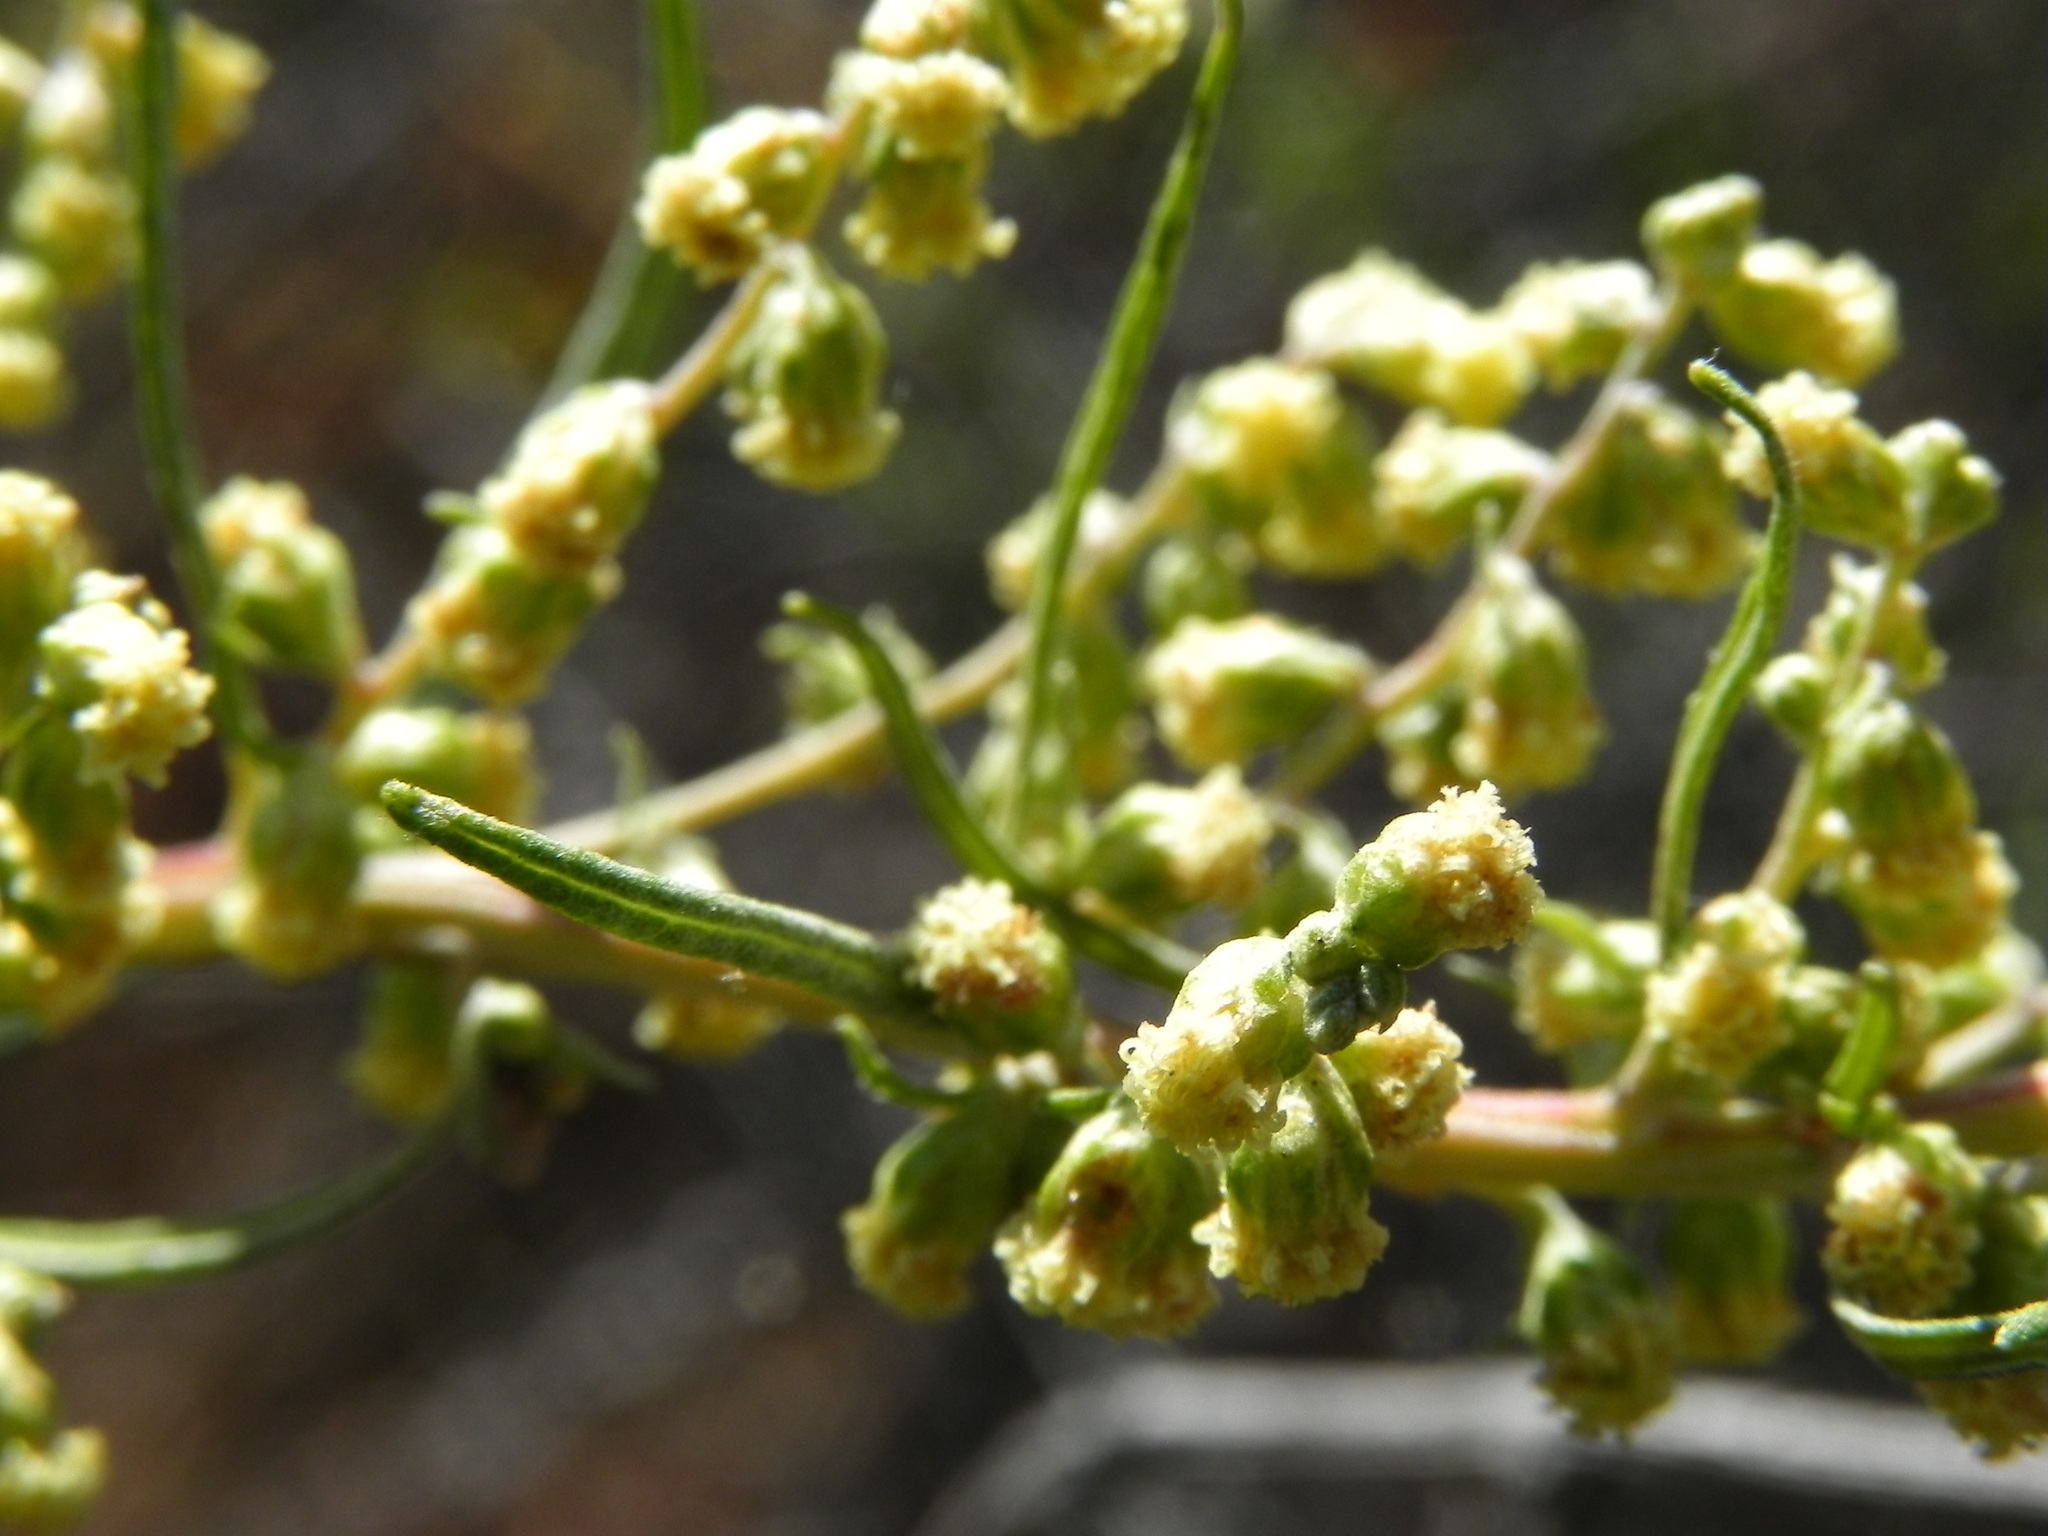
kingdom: Plantae
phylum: Tracheophyta
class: Magnoliopsida
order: Asterales
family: Asteraceae
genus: Artemisia
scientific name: Artemisia palmeri
